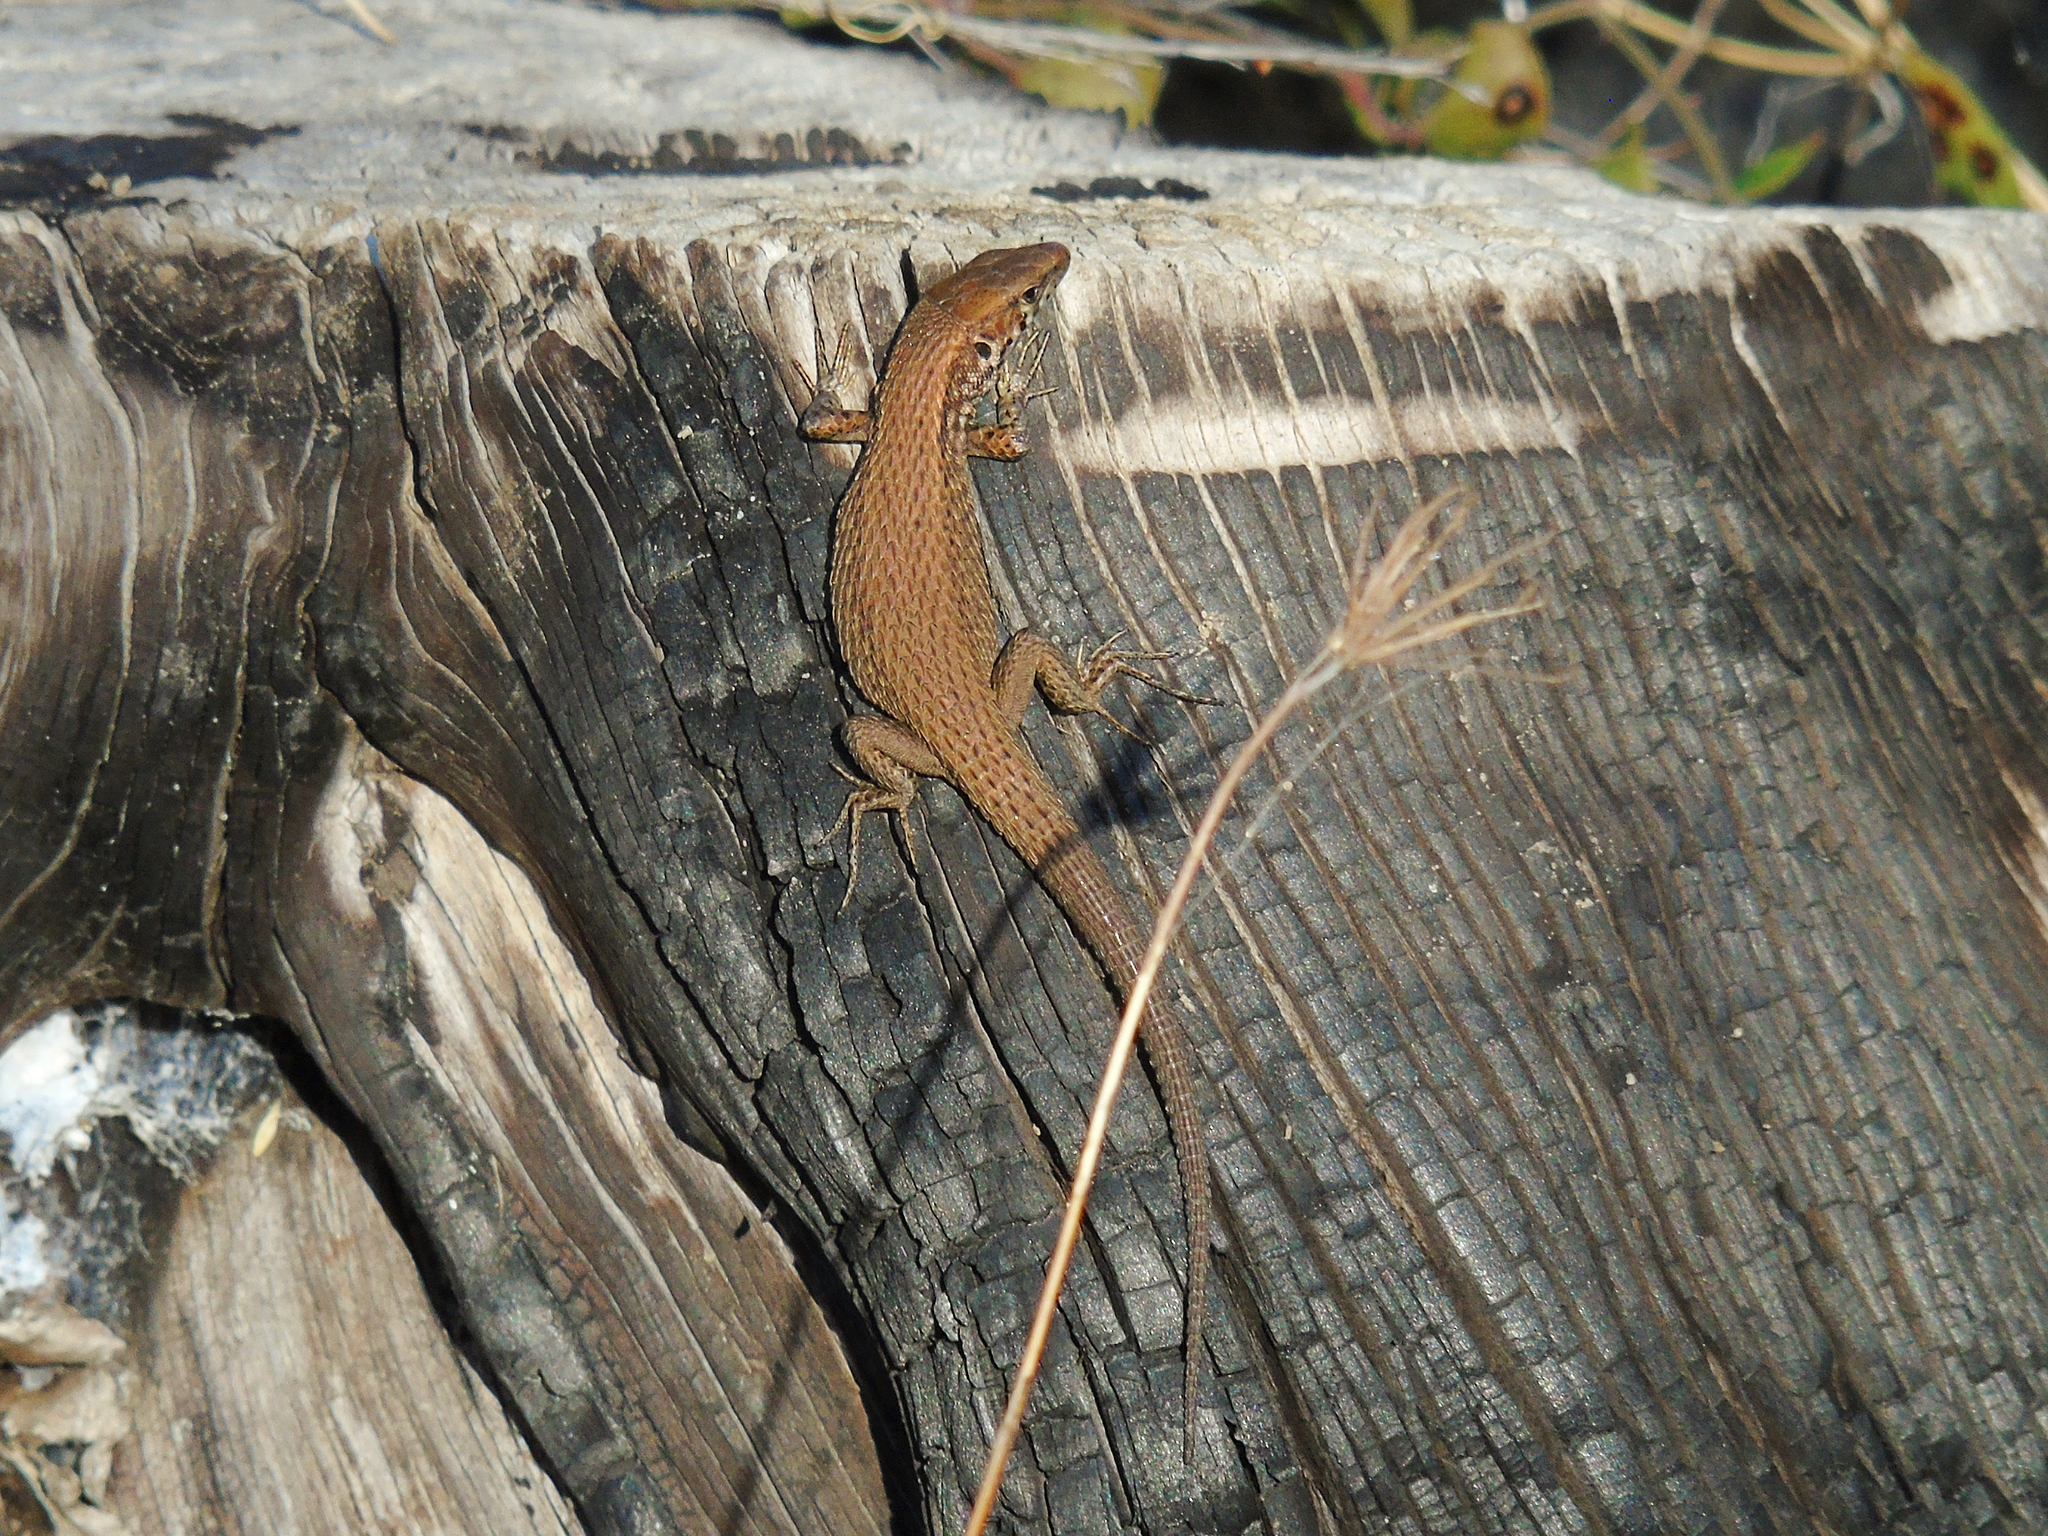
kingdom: Animalia
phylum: Chordata
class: Squamata
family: Lacertidae
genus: Algyroides
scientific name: Algyroides moreoticus
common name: Greek algyroides
